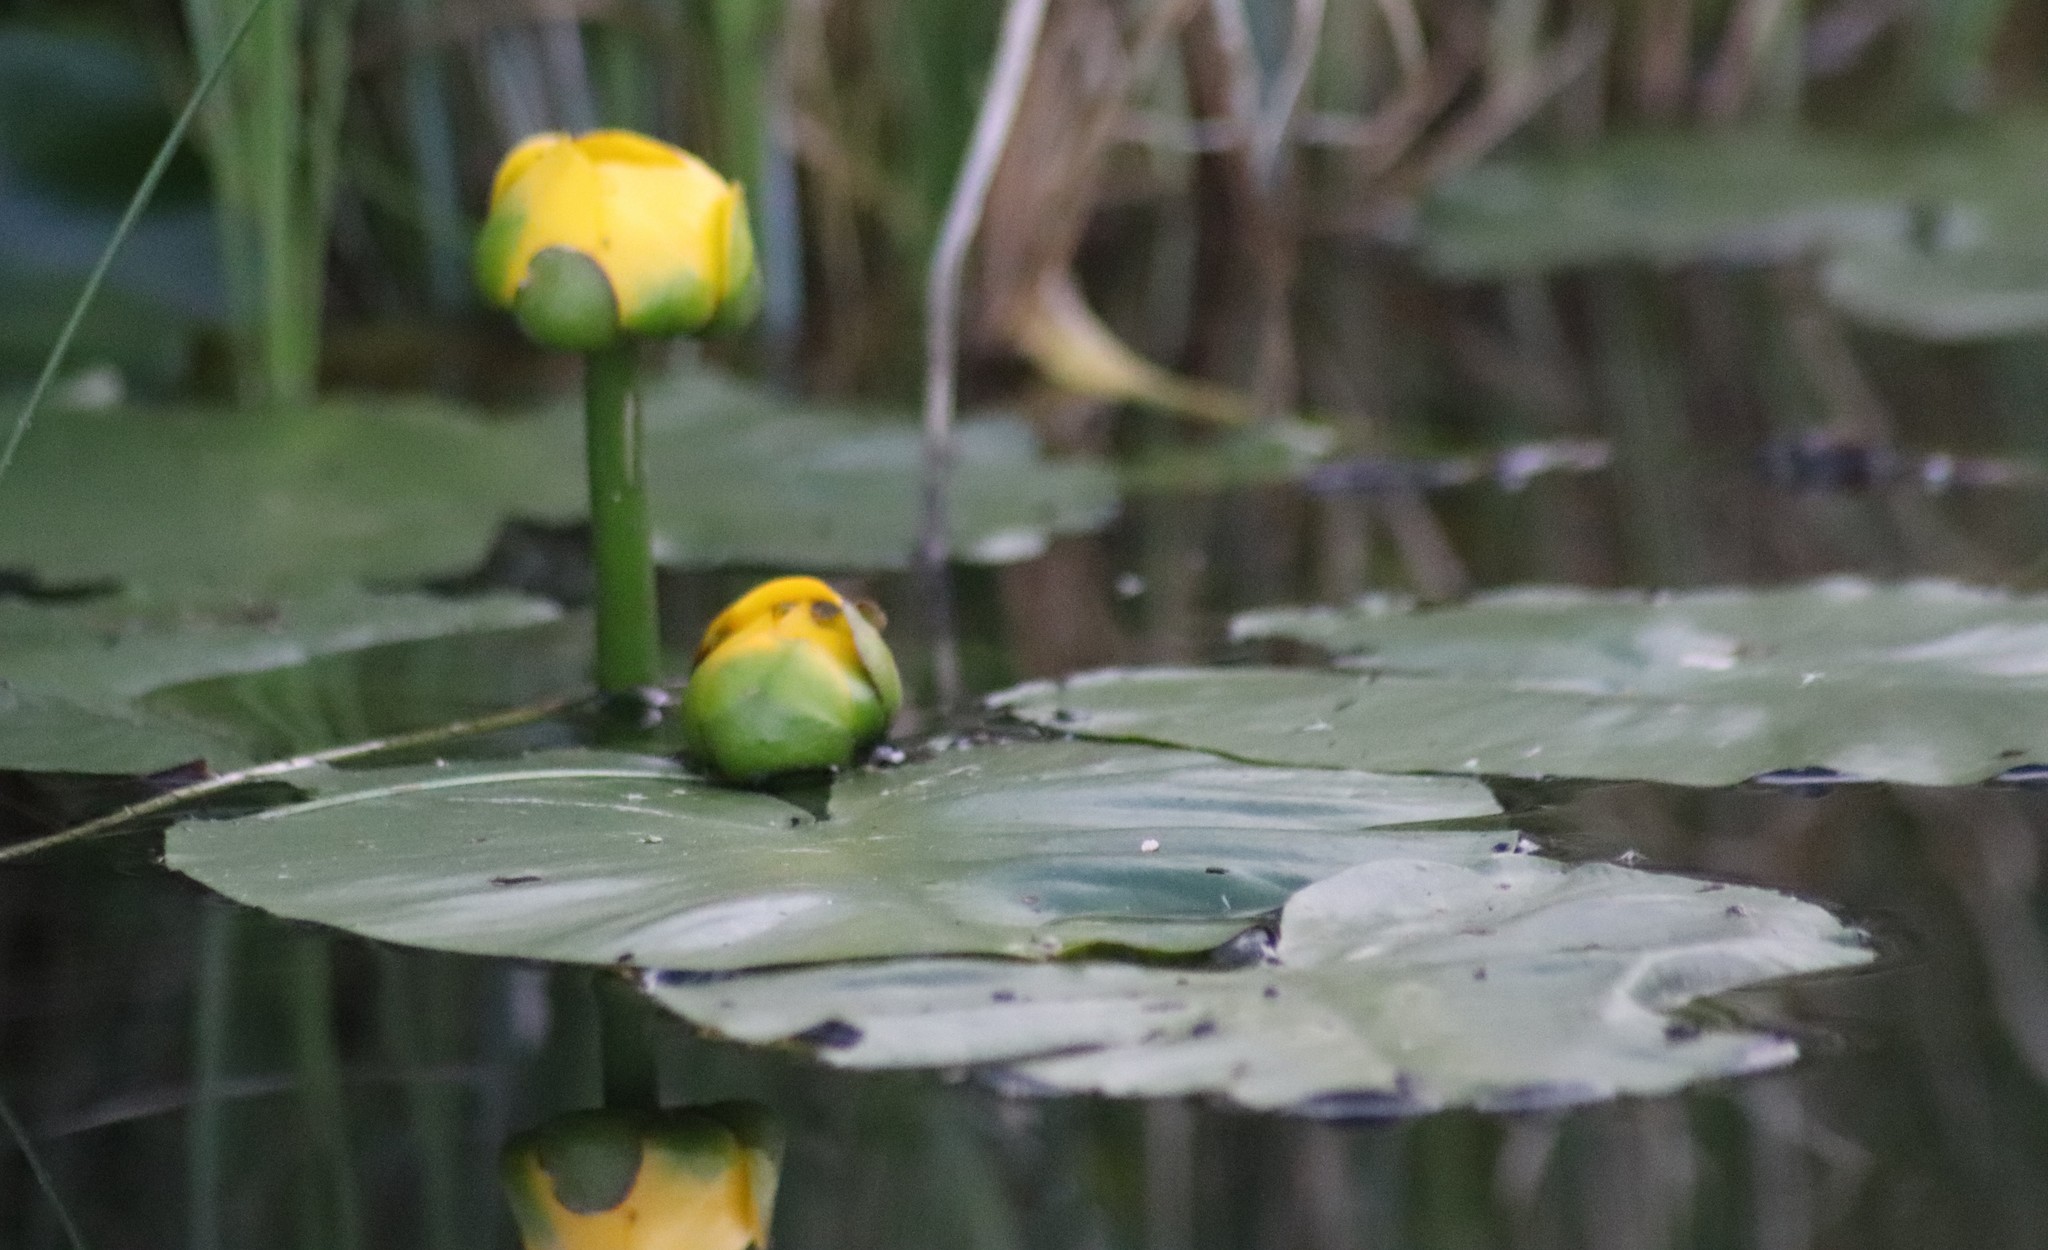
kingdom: Plantae
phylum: Tracheophyta
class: Magnoliopsida
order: Nymphaeales
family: Nymphaeaceae
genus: Nuphar
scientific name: Nuphar variegata
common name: Beaver-root
